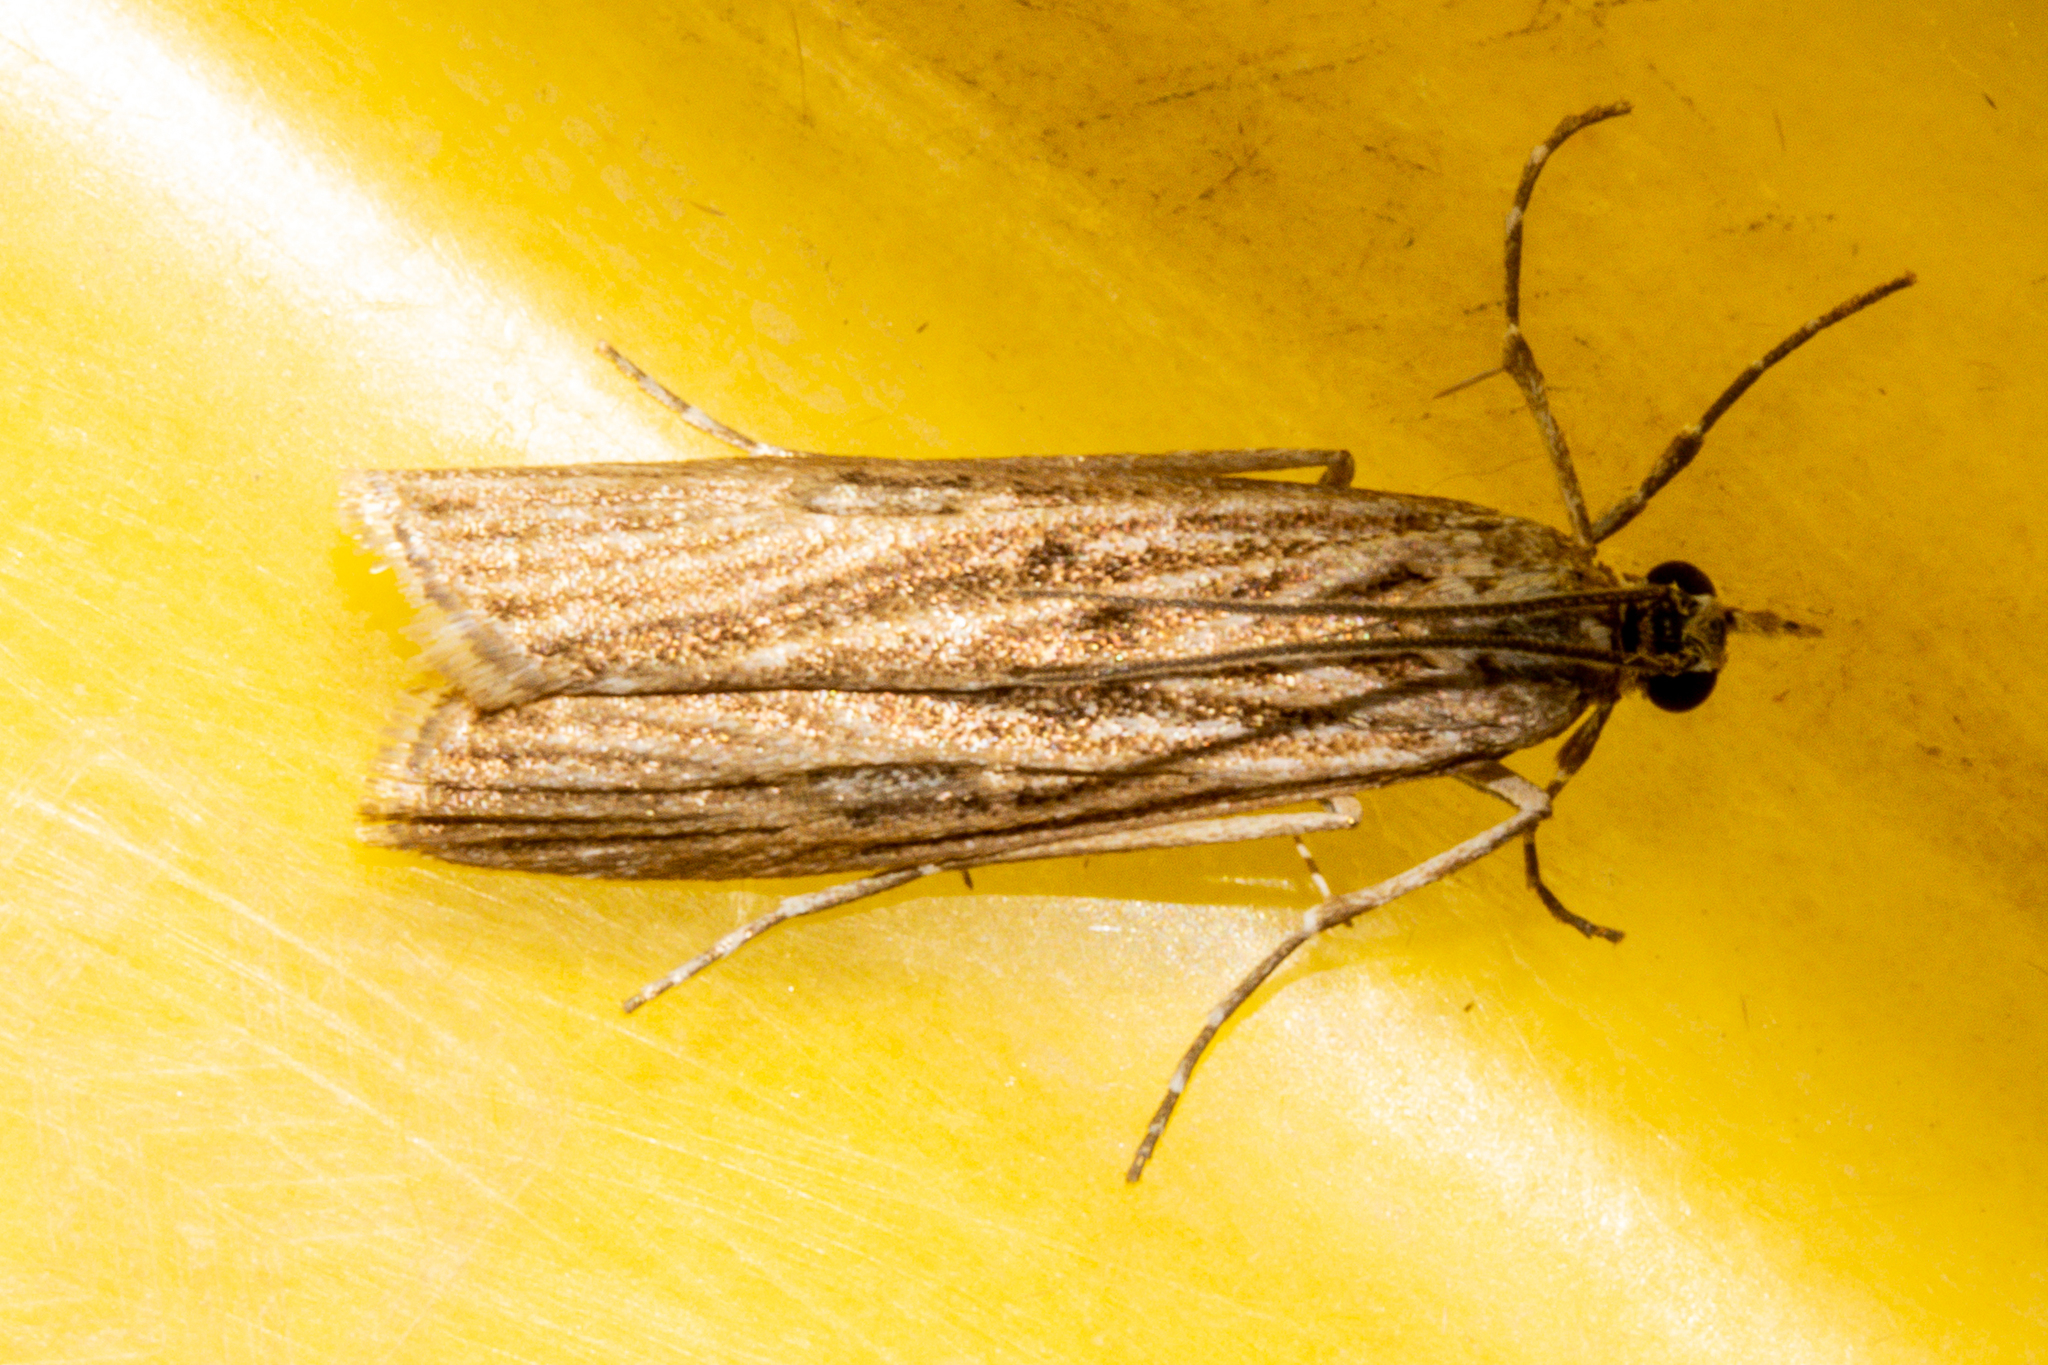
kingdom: Animalia
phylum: Arthropoda
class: Insecta
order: Lepidoptera
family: Crambidae
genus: Eudonia
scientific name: Eudonia atmogramma
